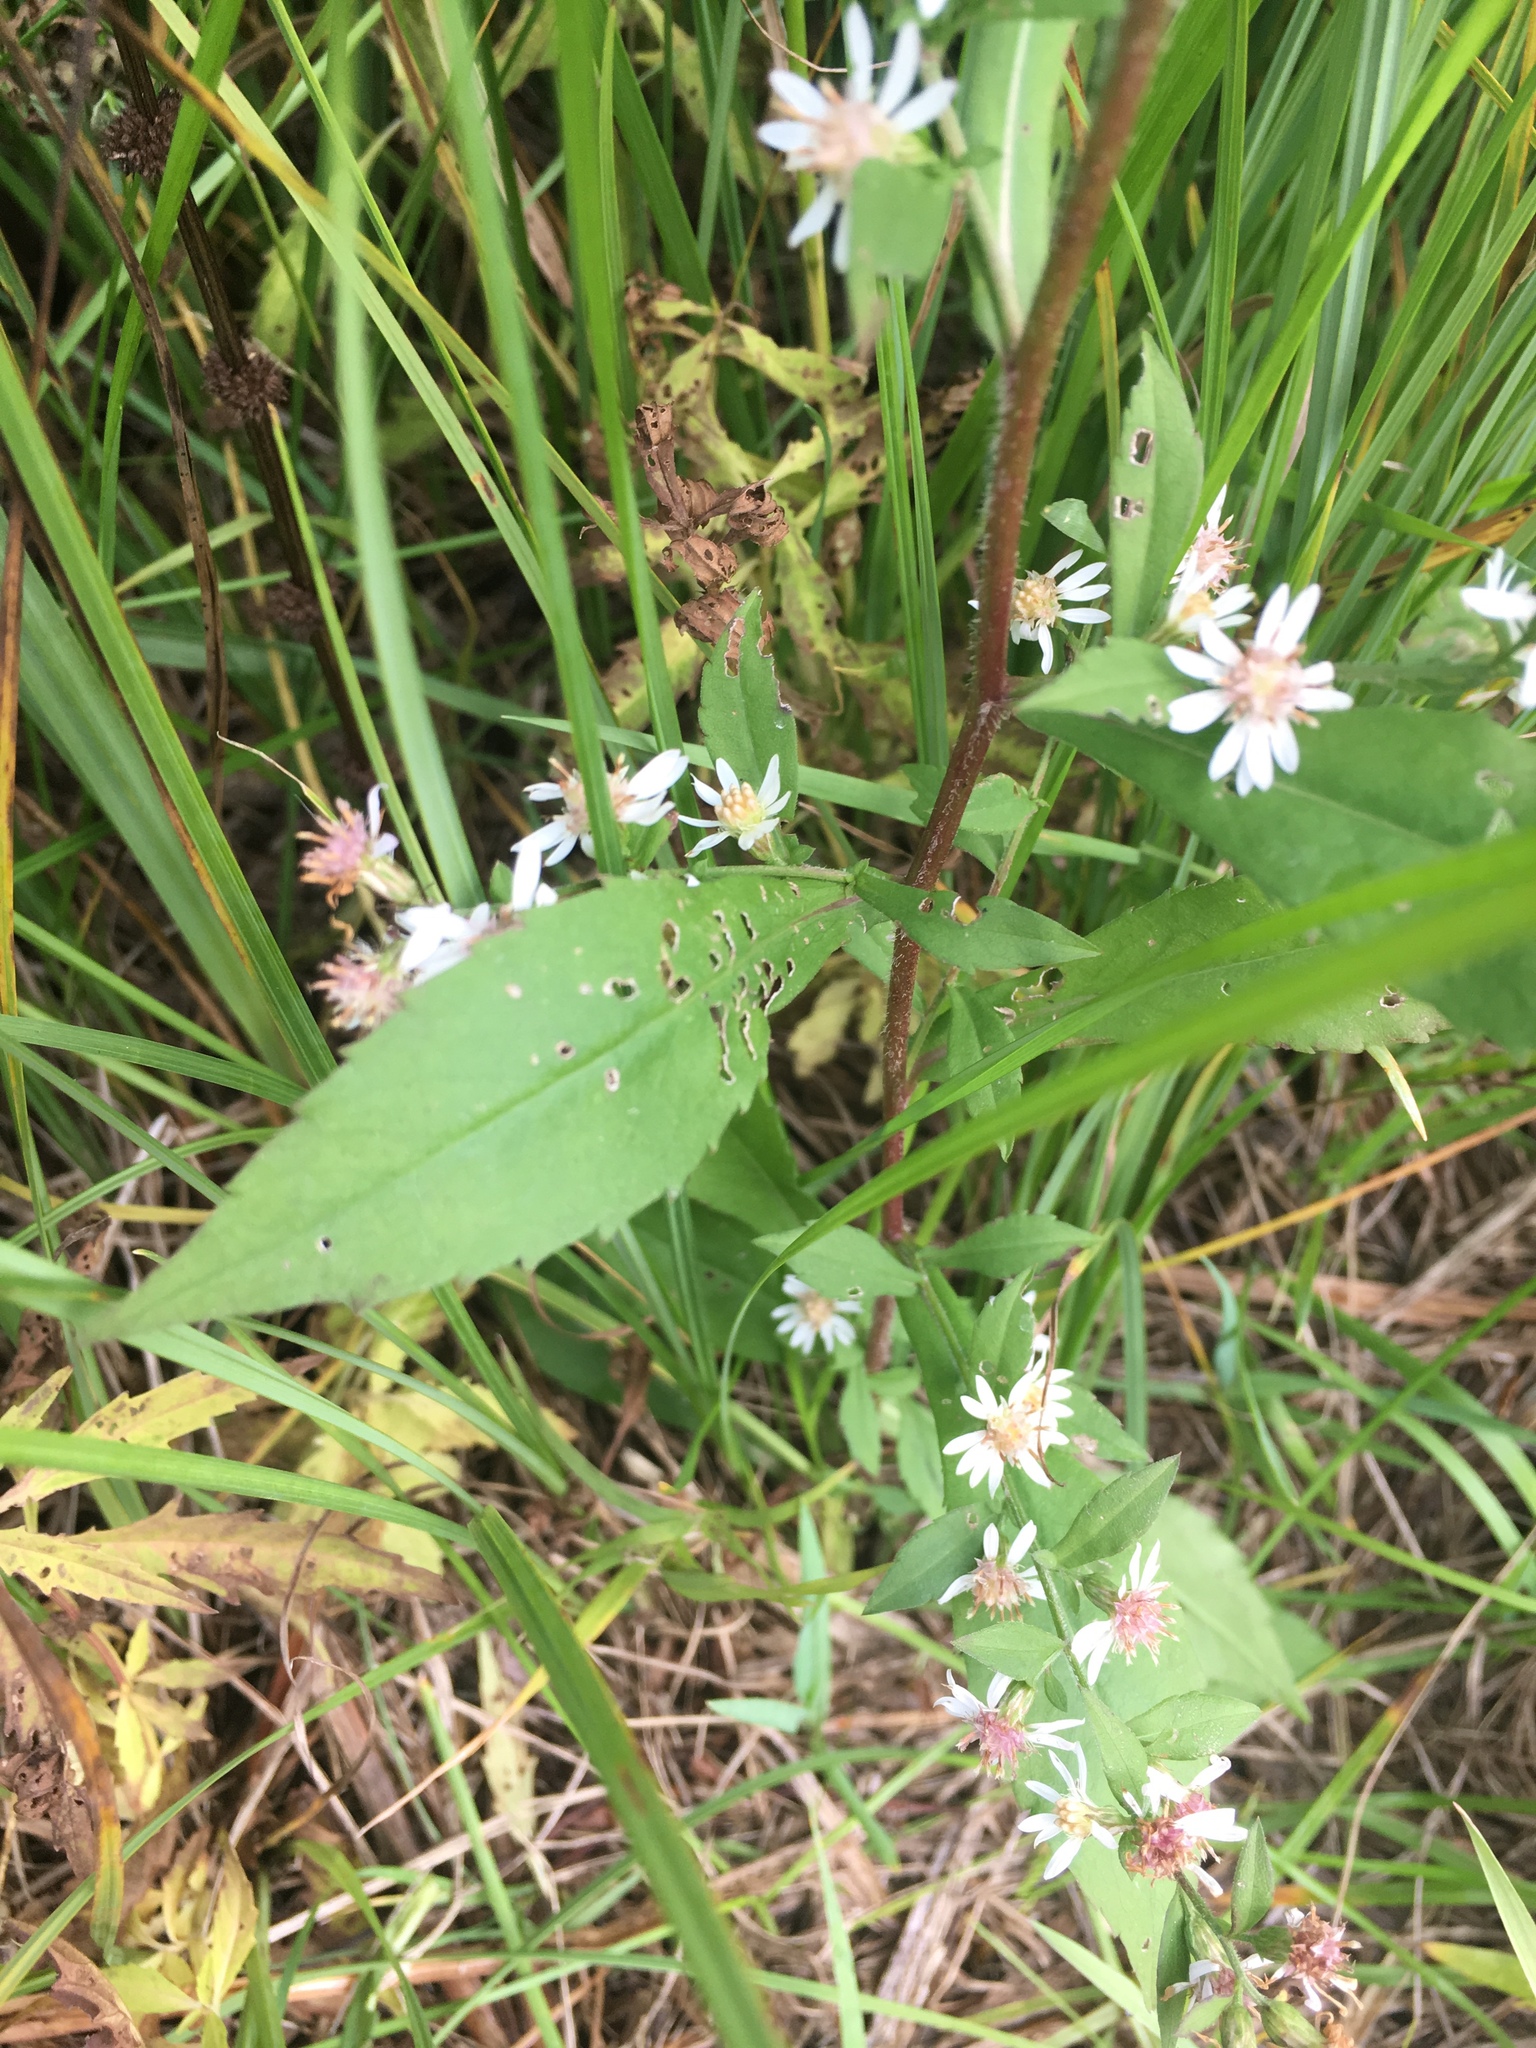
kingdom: Plantae
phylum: Tracheophyta
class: Magnoliopsida
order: Asterales
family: Asteraceae
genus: Symphyotrichum
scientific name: Symphyotrichum lateriflorum
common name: Calico aster
